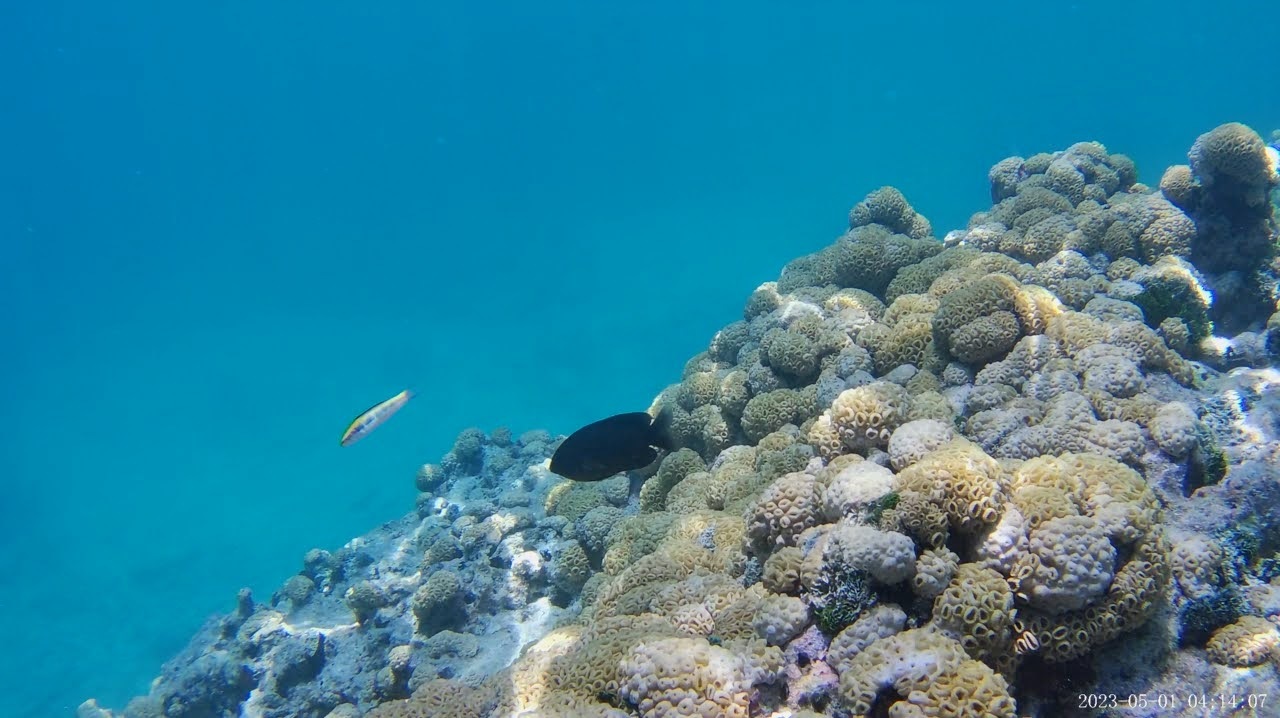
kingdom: Animalia
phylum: Chordata
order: Perciformes
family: Labridae
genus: Thalassoma
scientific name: Thalassoma bifasciatum
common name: Bluehead wrasse
